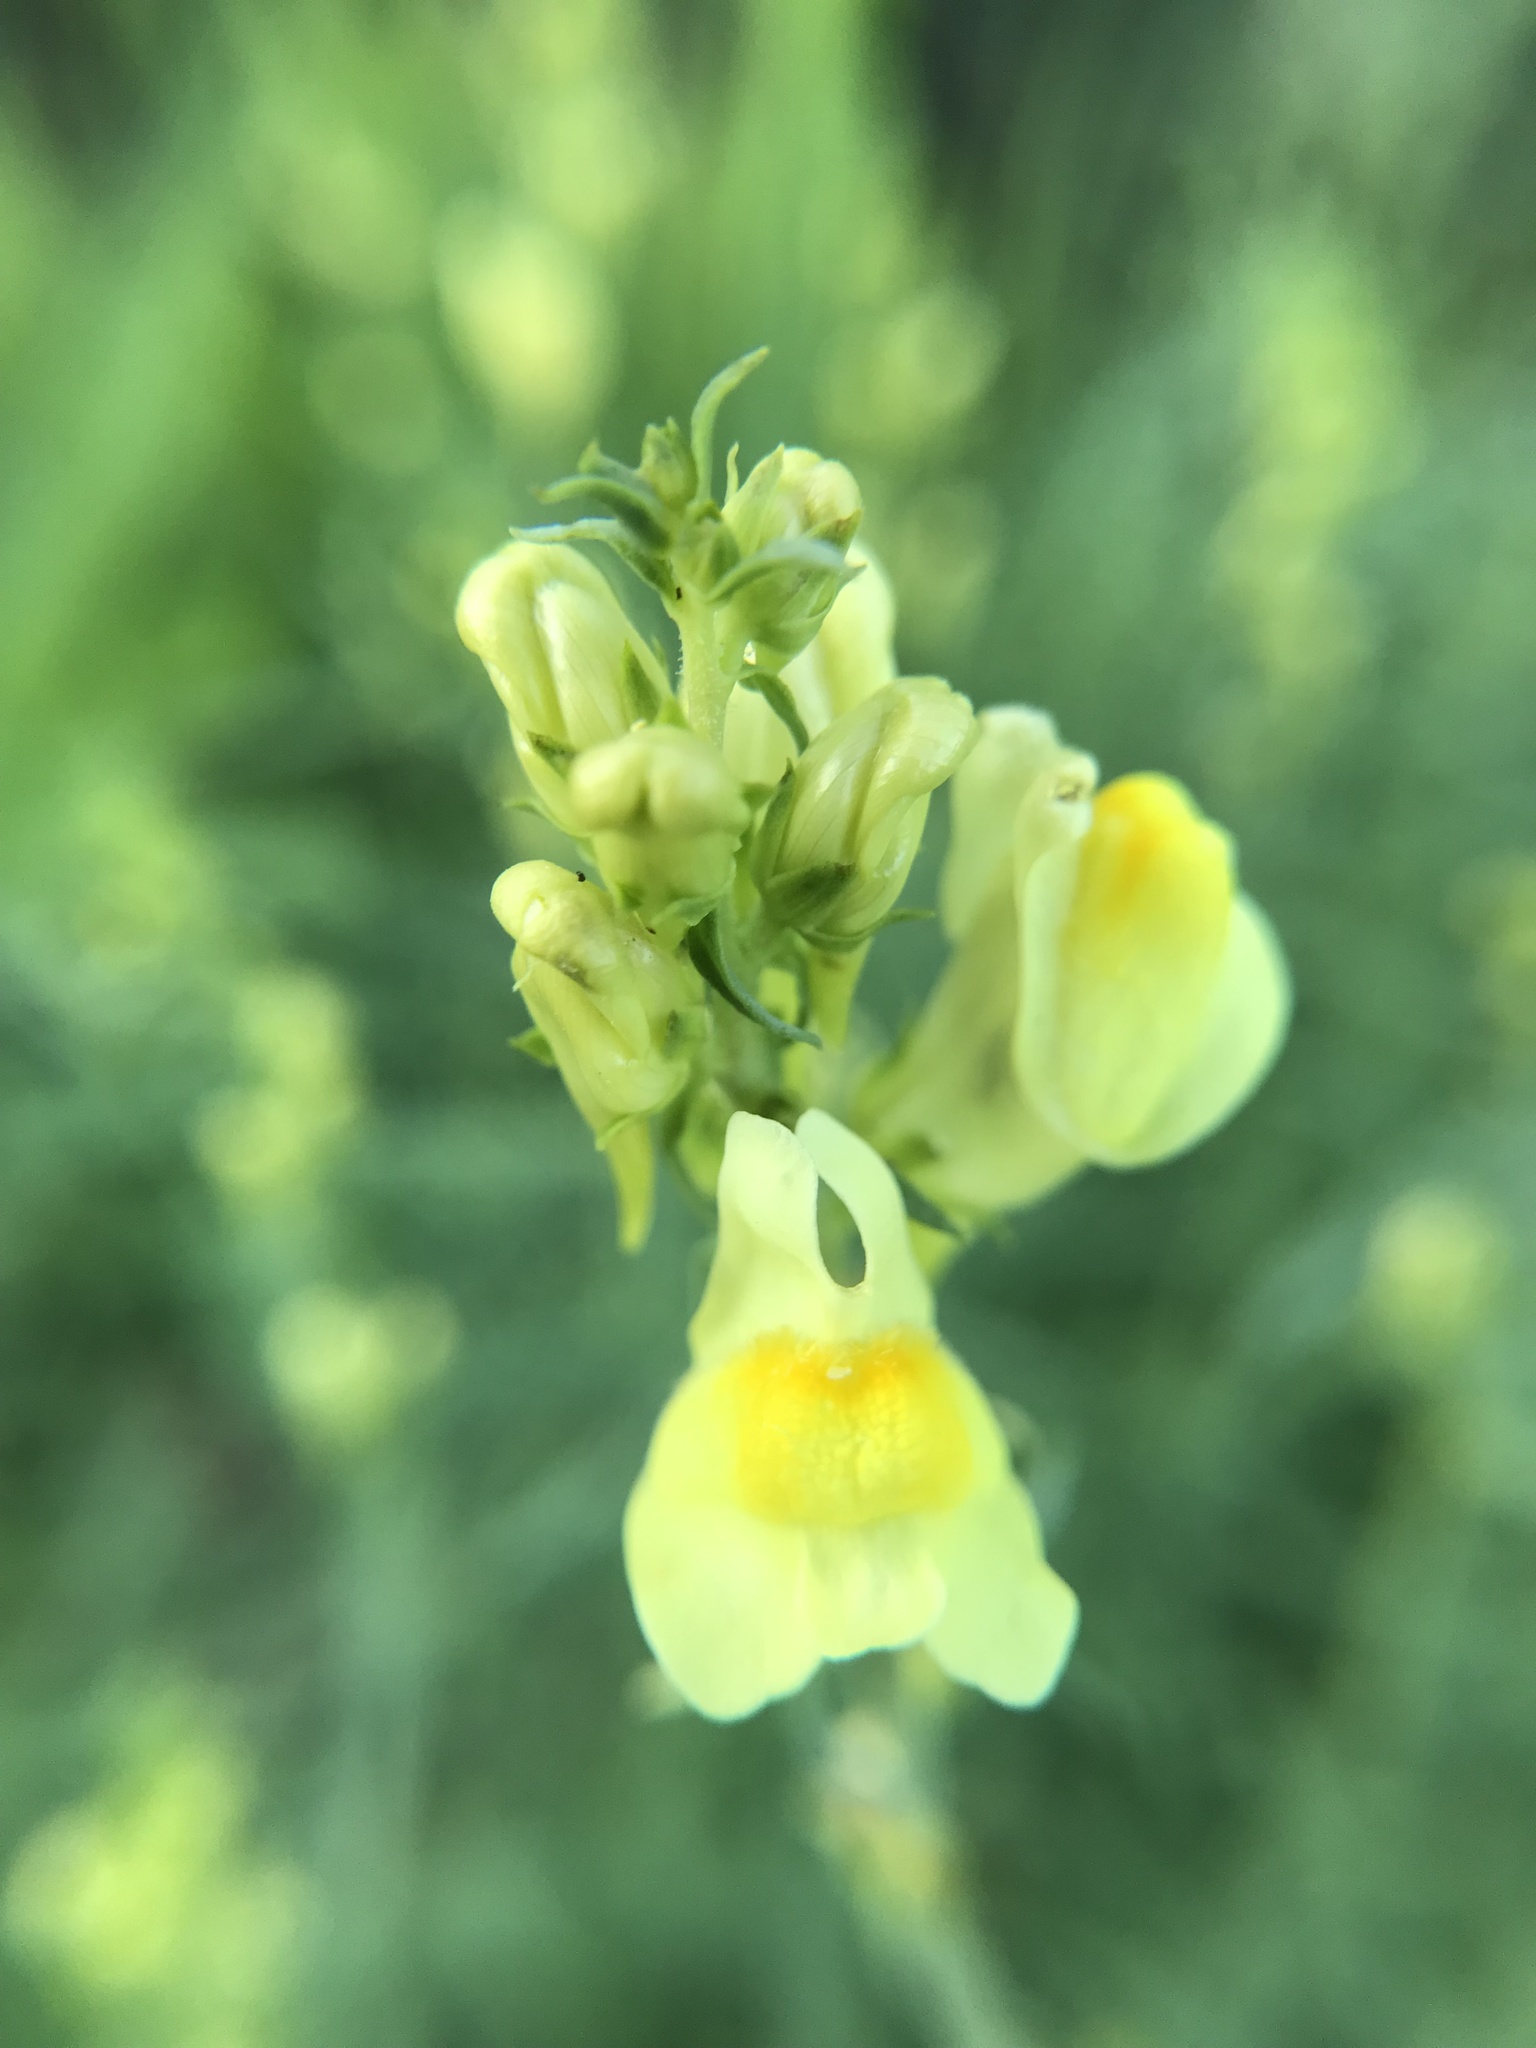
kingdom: Plantae
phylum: Tracheophyta
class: Magnoliopsida
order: Lamiales
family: Plantaginaceae
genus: Linaria
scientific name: Linaria vulgaris
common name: Butter and eggs
